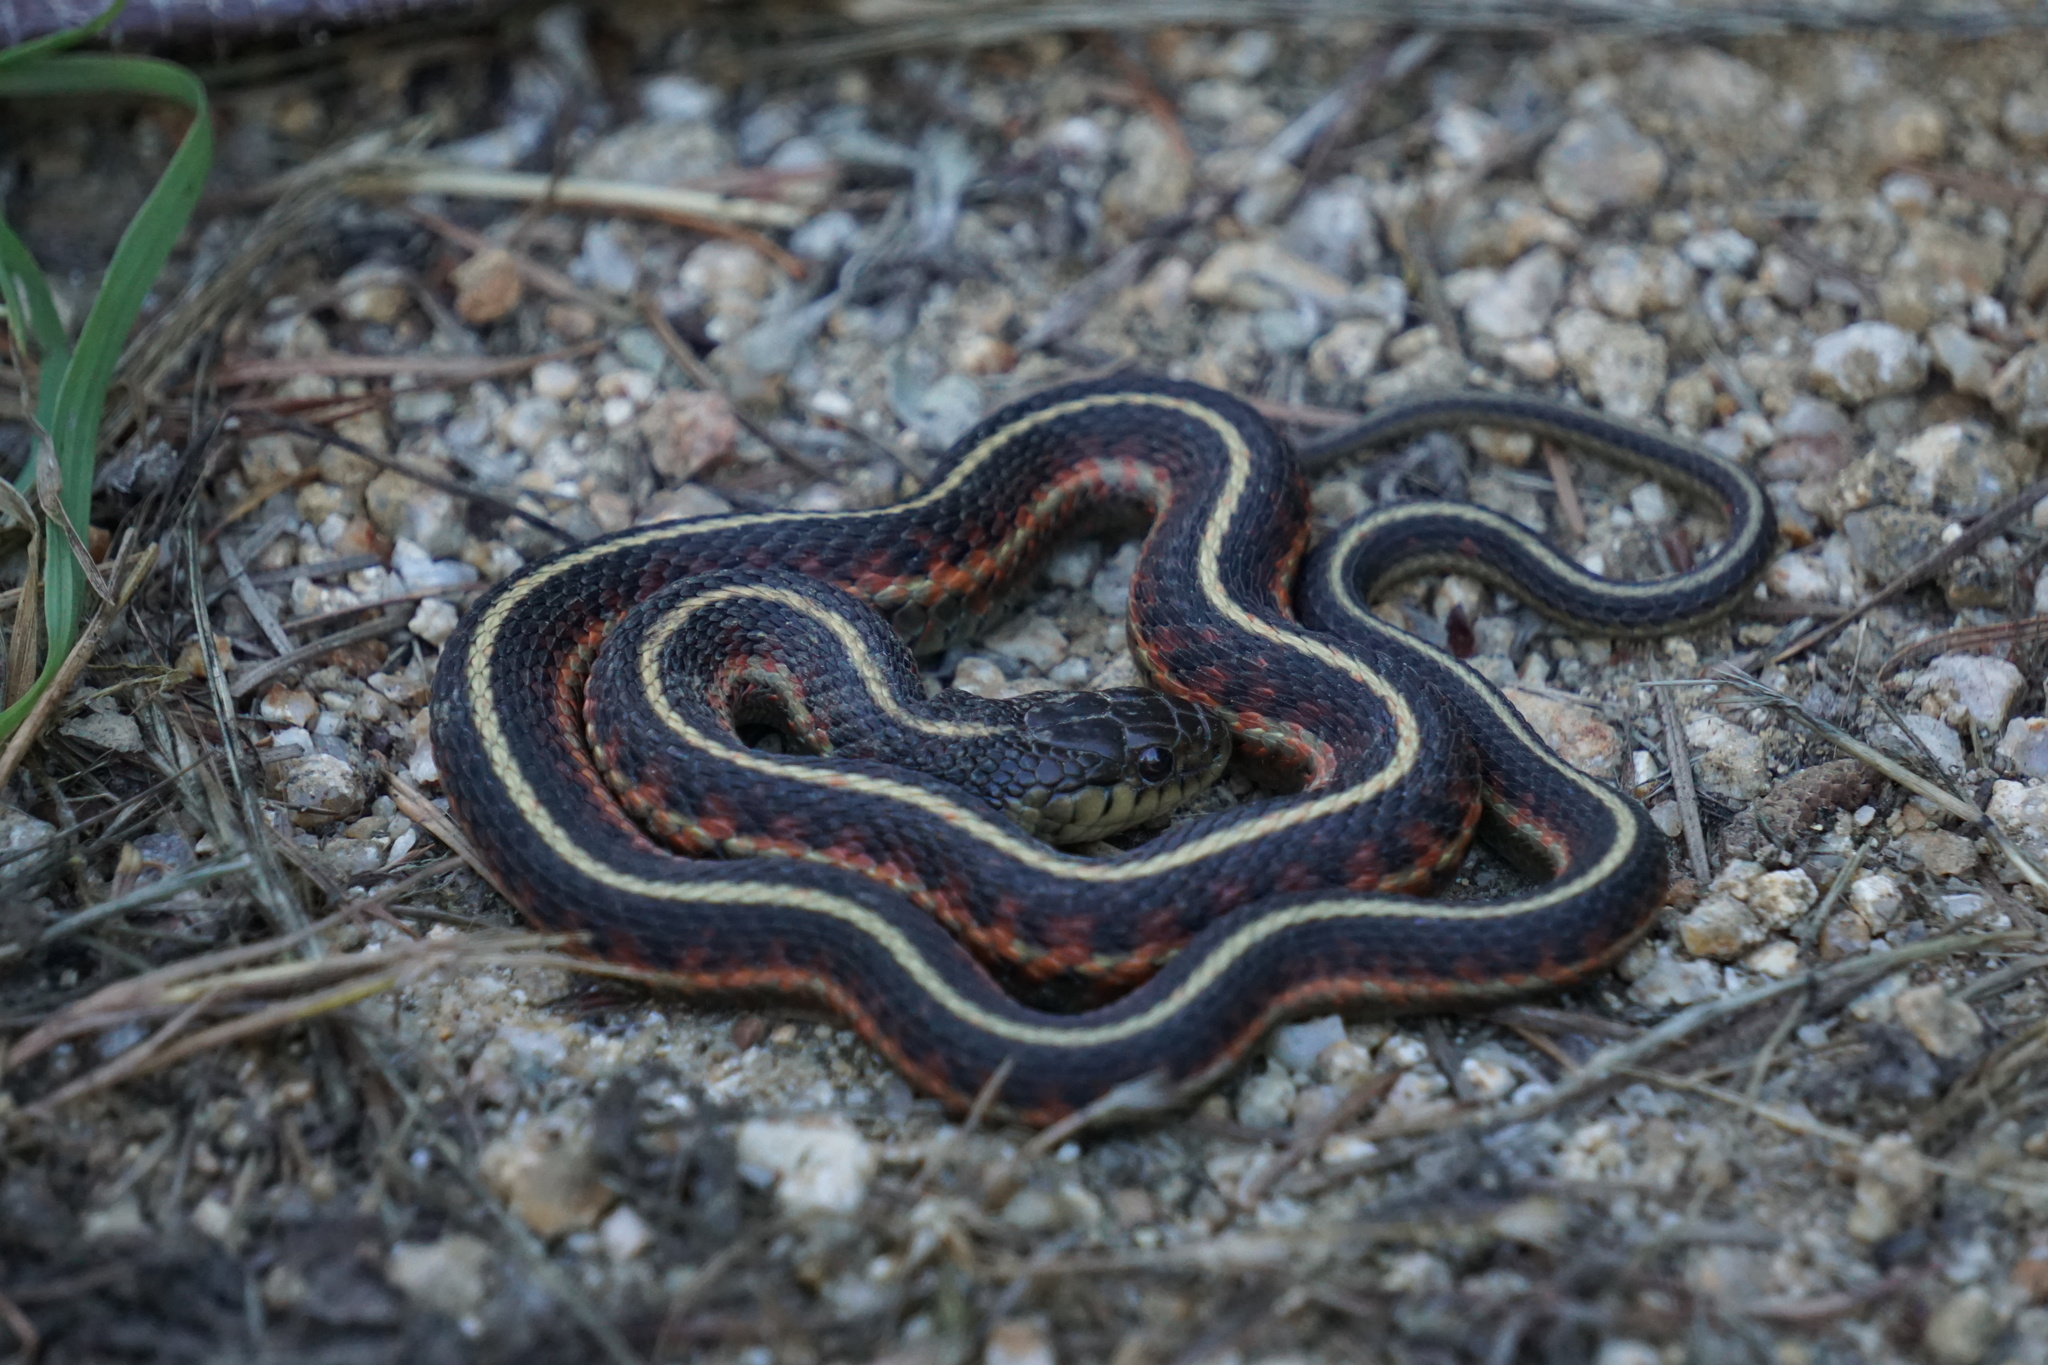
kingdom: Animalia
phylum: Chordata
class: Squamata
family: Colubridae
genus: Thamnophis
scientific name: Thamnophis elegans
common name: Western terrestrial garter snake
